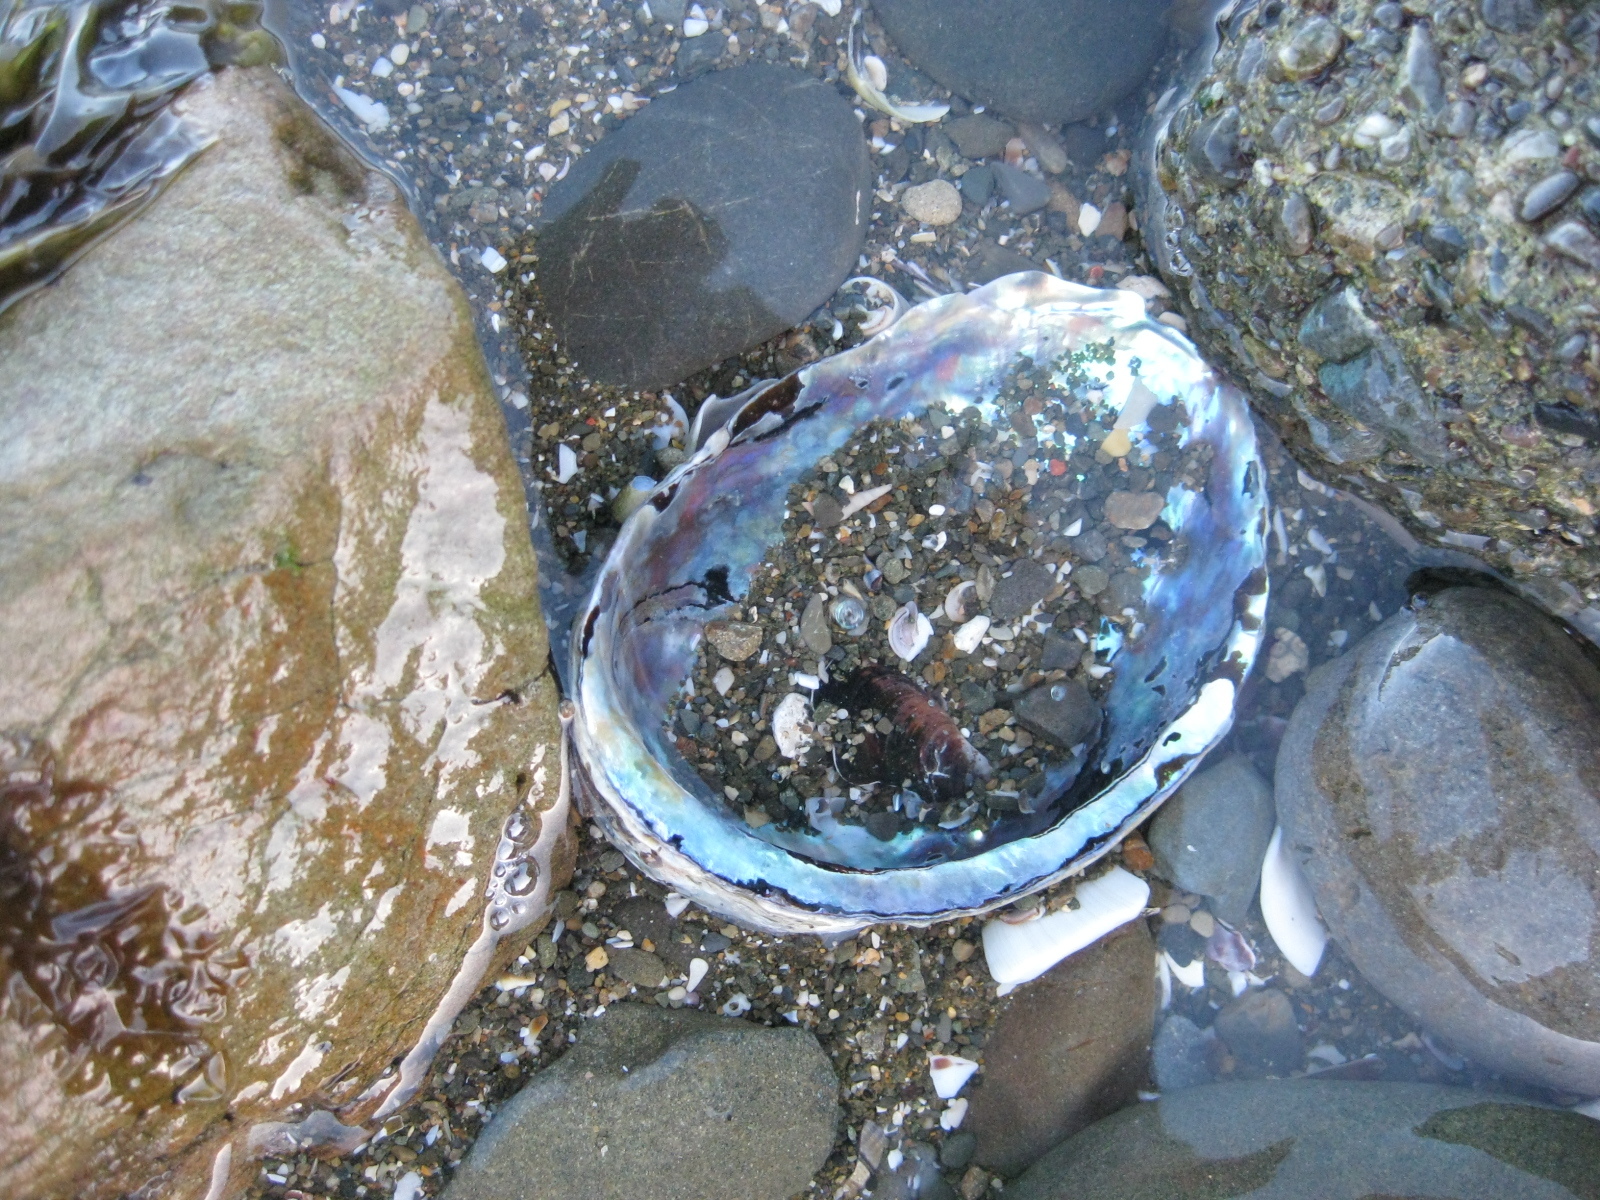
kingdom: Animalia
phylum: Mollusca
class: Gastropoda
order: Lepetellida
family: Haliotidae
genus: Haliotis
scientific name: Haliotis iris
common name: Abalone
